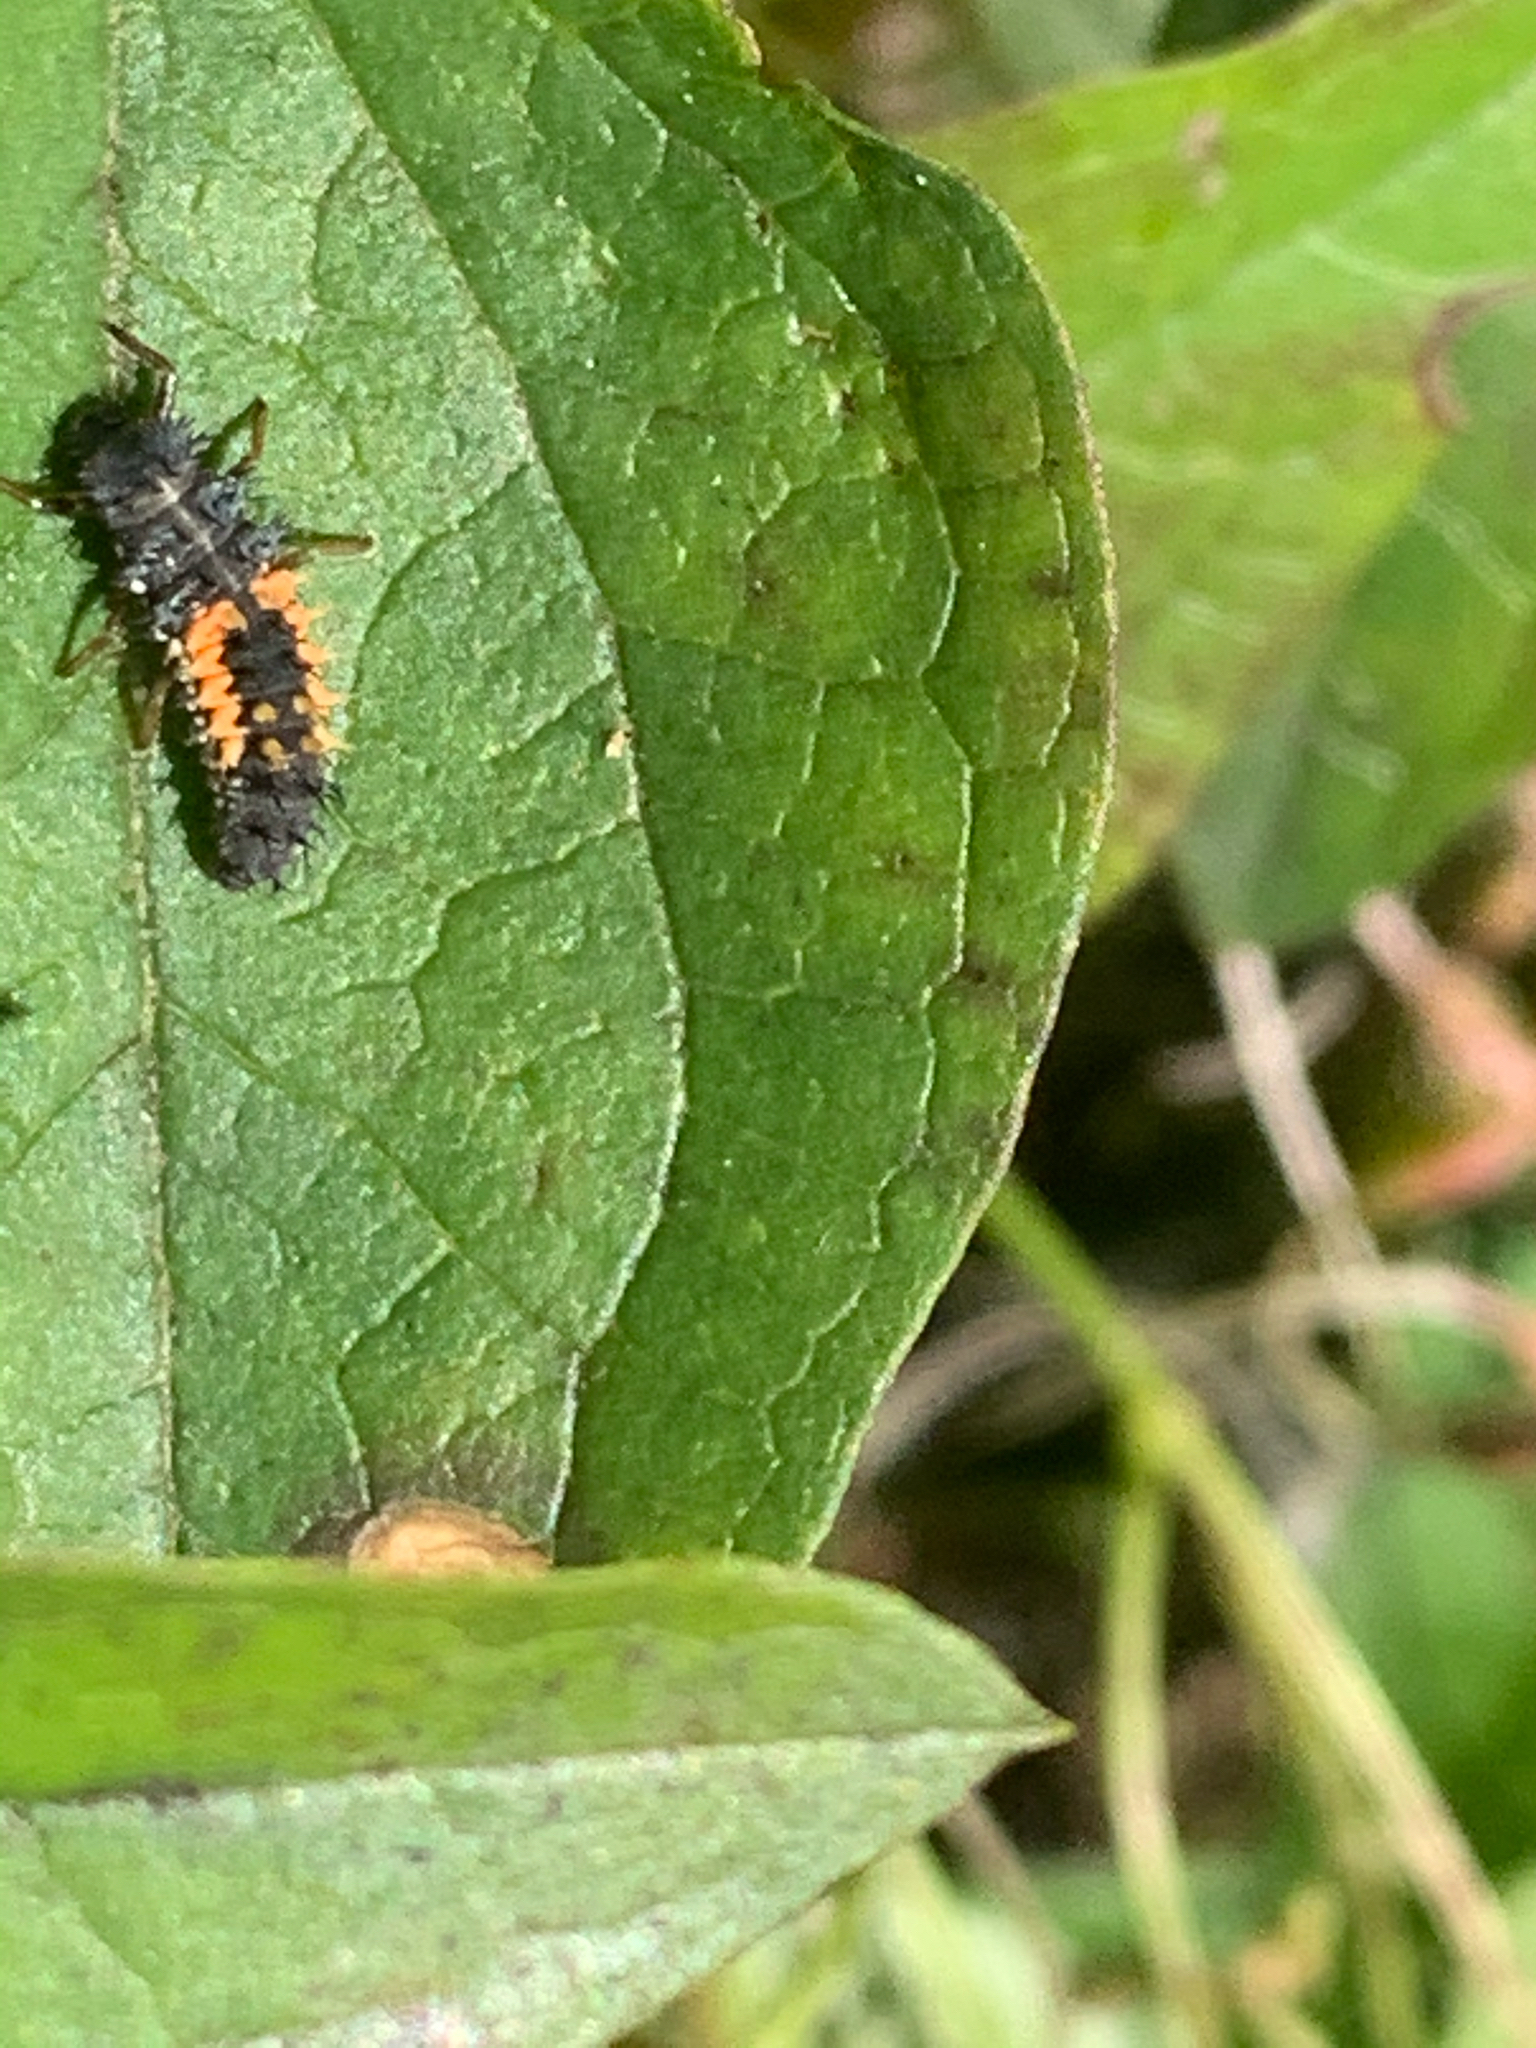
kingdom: Animalia
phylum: Arthropoda
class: Insecta
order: Coleoptera
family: Coccinellidae
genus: Harmonia
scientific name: Harmonia axyridis
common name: Harlequin ladybird
